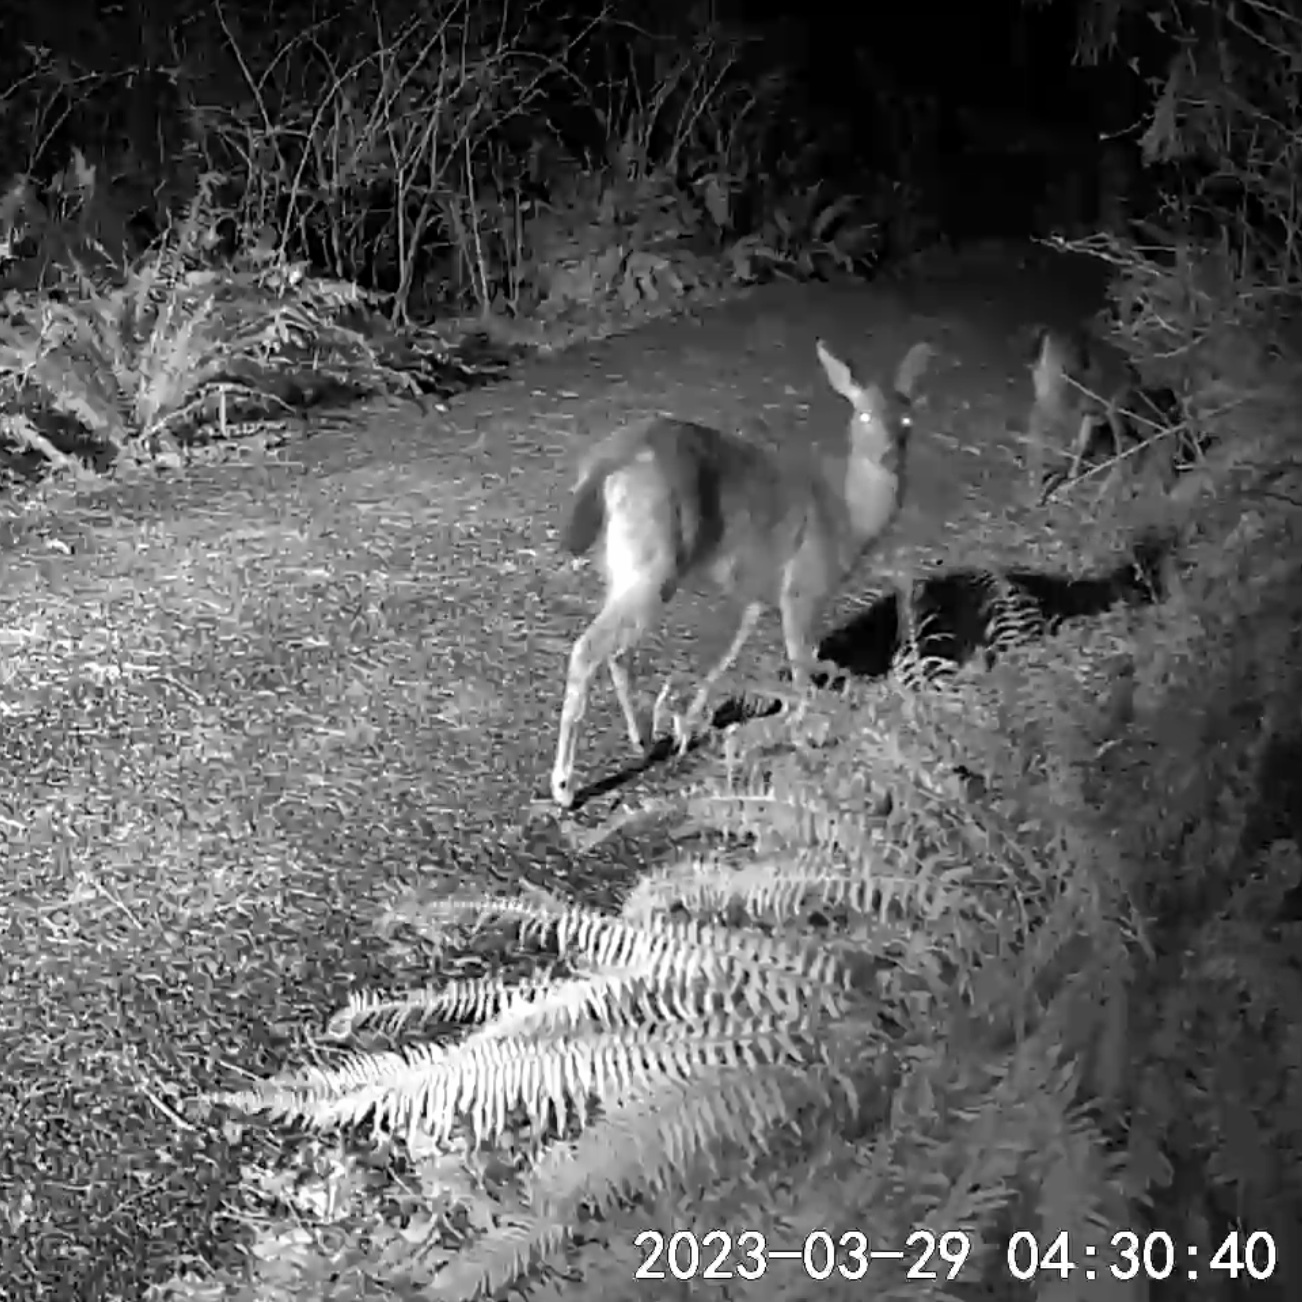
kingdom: Animalia
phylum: Chordata
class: Mammalia
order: Artiodactyla
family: Cervidae
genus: Odocoileus
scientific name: Odocoileus hemionus
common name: Mule deer
